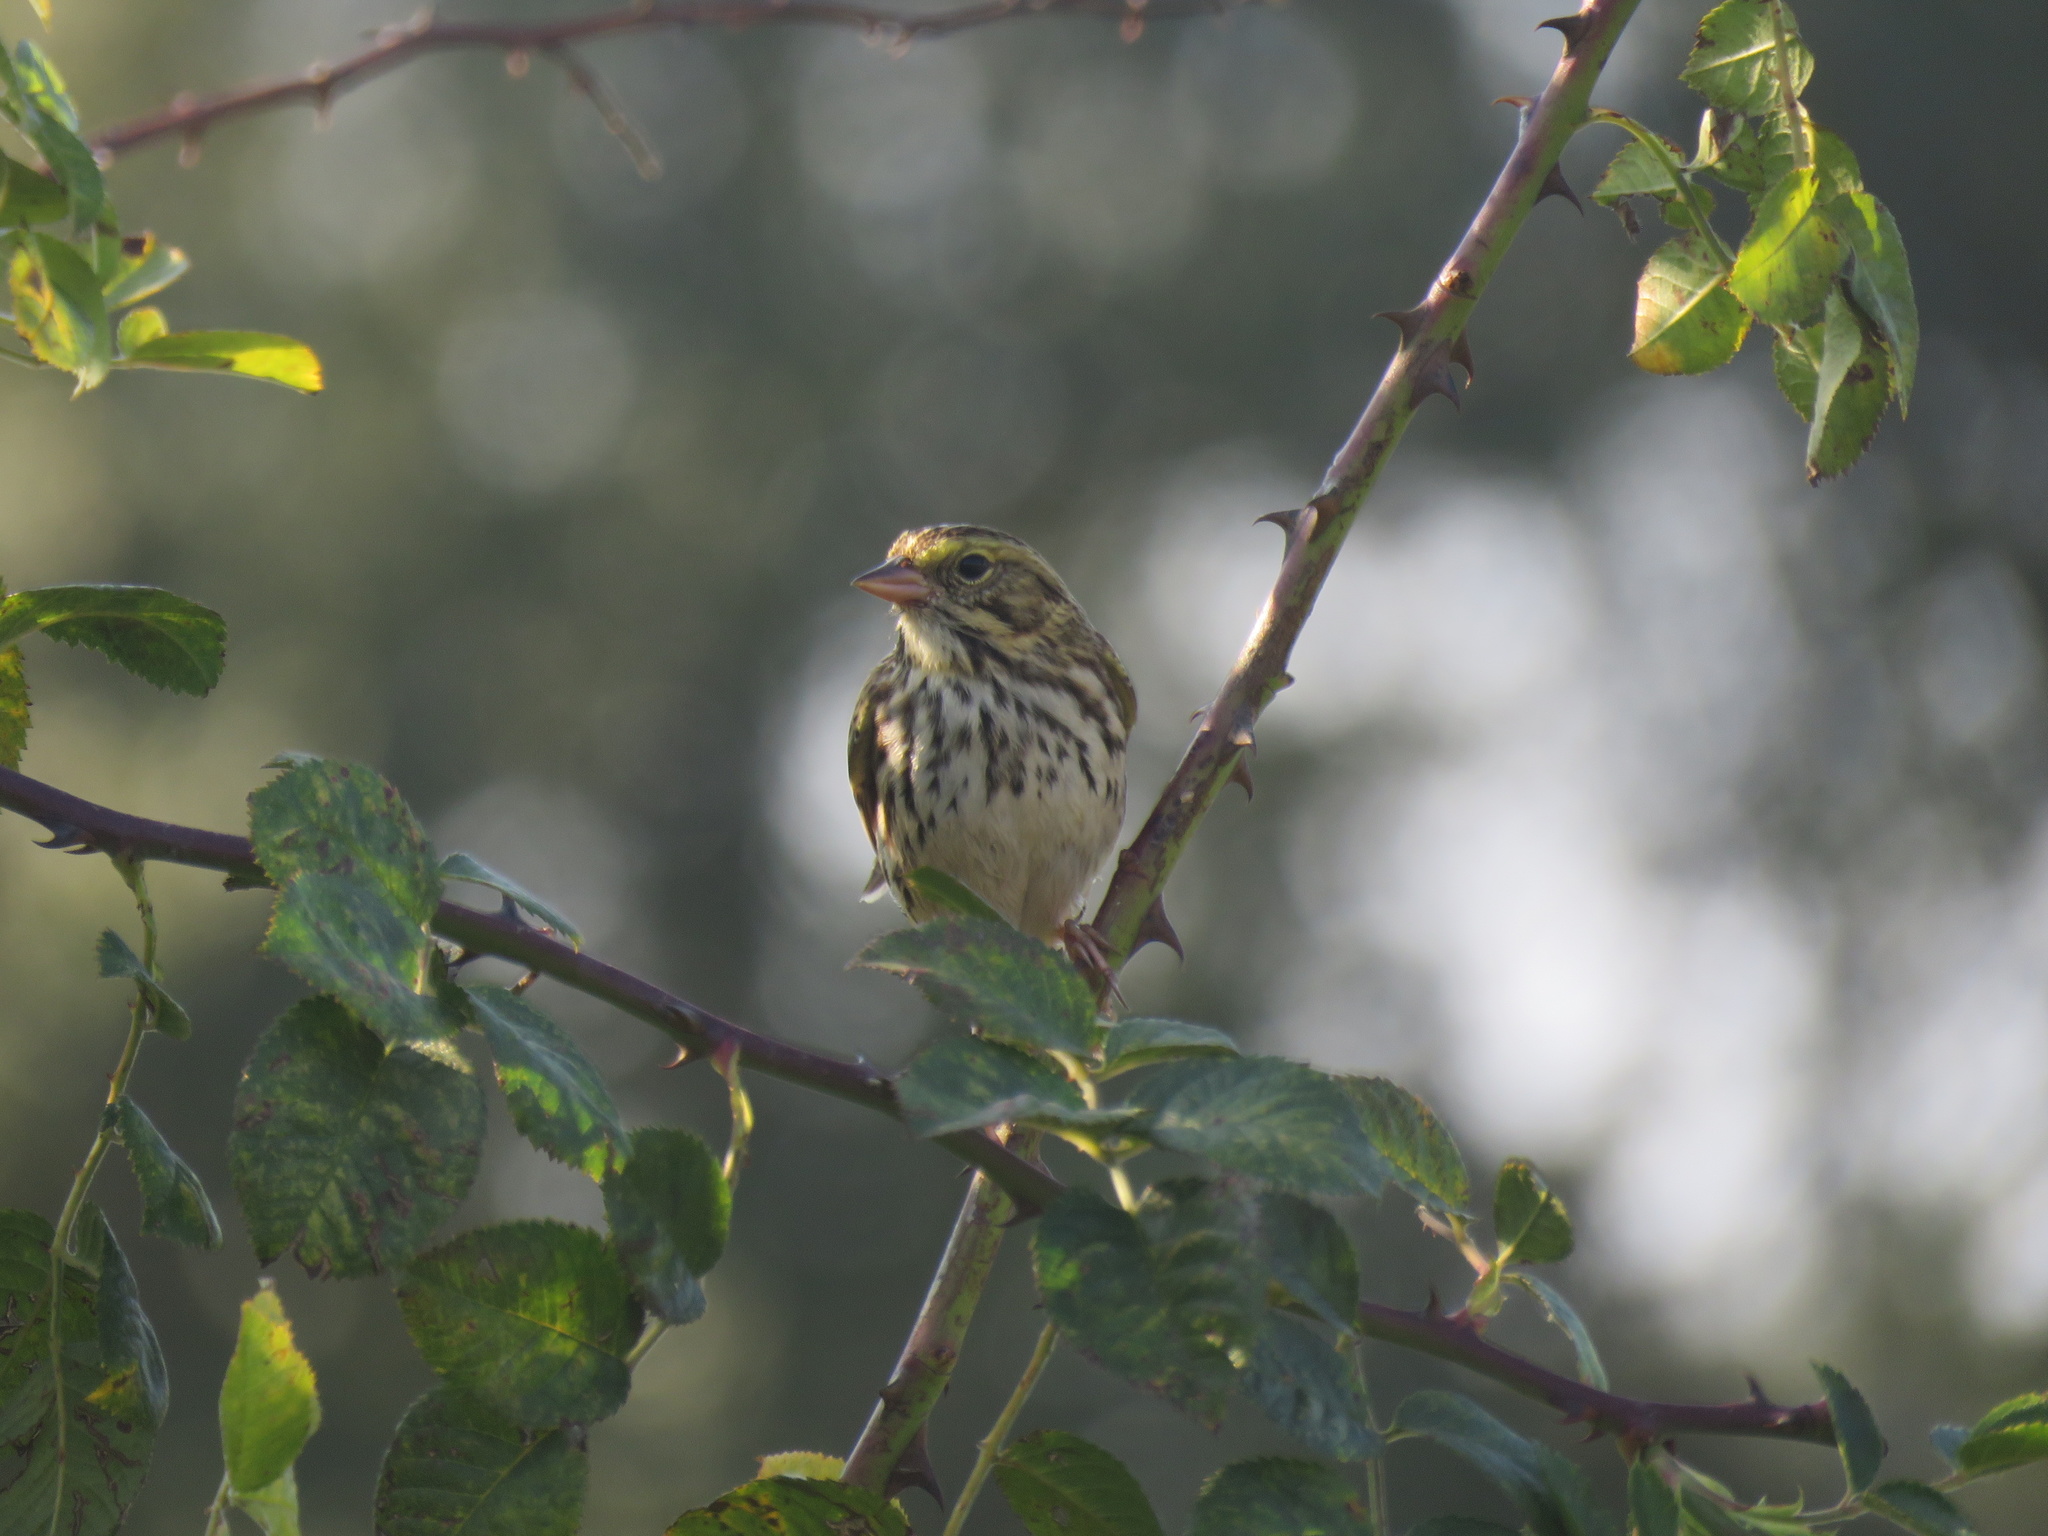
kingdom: Animalia
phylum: Chordata
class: Aves
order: Passeriformes
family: Passerellidae
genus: Passerculus
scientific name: Passerculus sandwichensis
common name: Savannah sparrow
